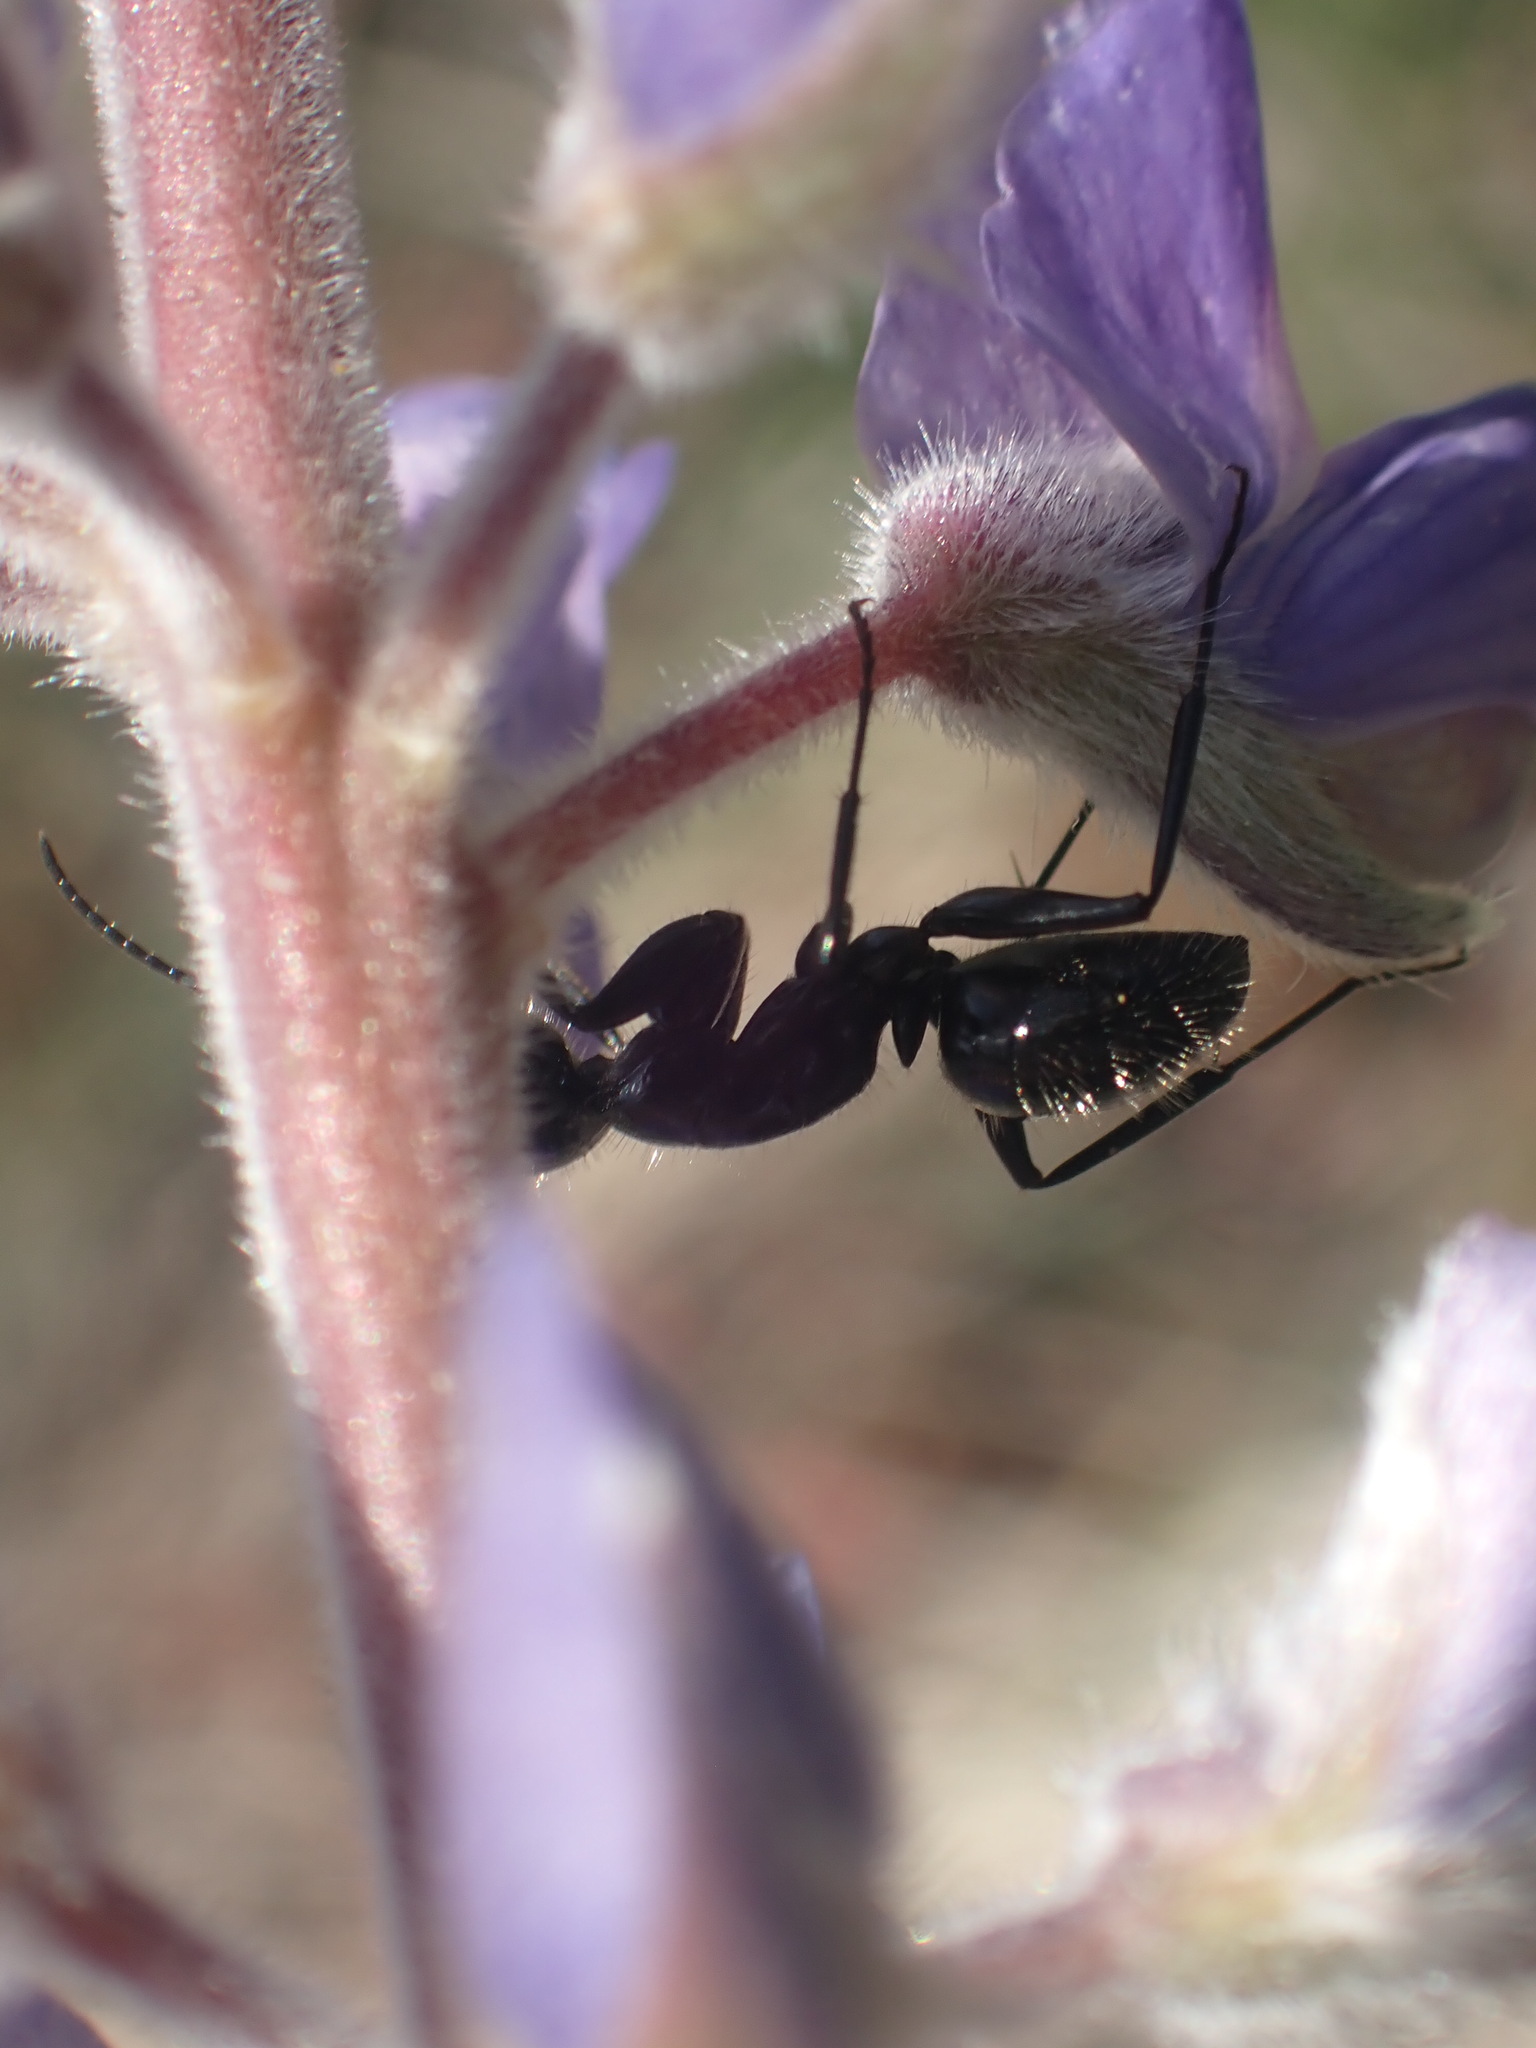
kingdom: Animalia
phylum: Arthropoda
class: Insecta
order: Hymenoptera
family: Formicidae
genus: Camponotus
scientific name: Camponotus
